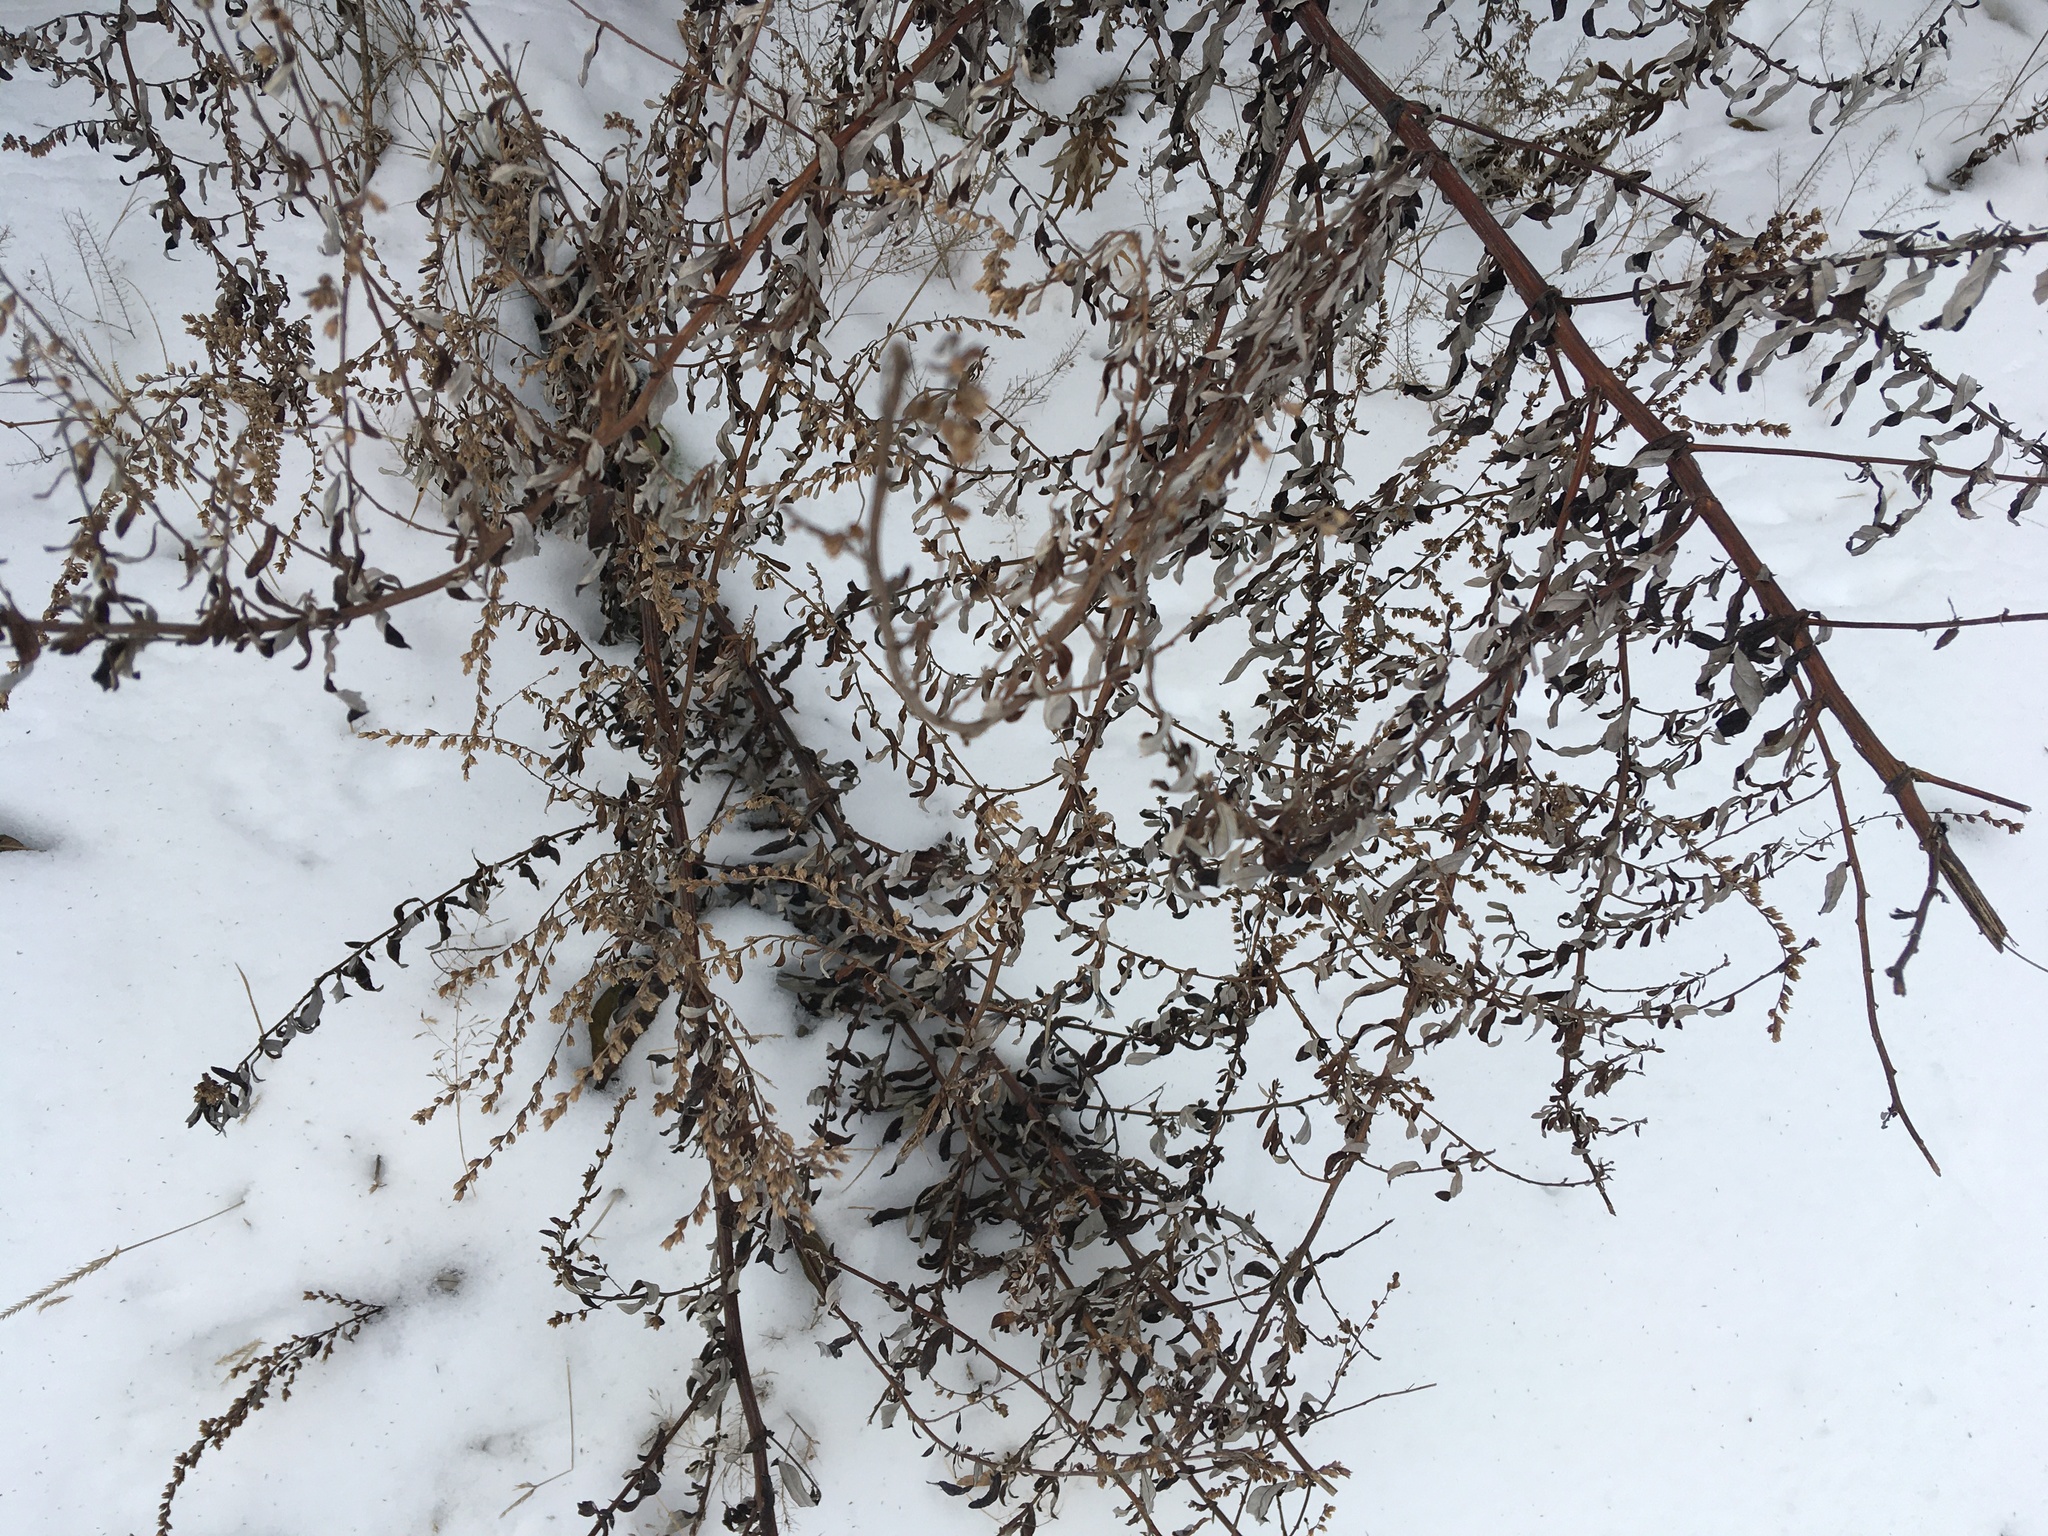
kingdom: Plantae
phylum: Tracheophyta
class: Magnoliopsida
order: Asterales
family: Asteraceae
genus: Artemisia
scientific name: Artemisia vulgaris
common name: Mugwort
